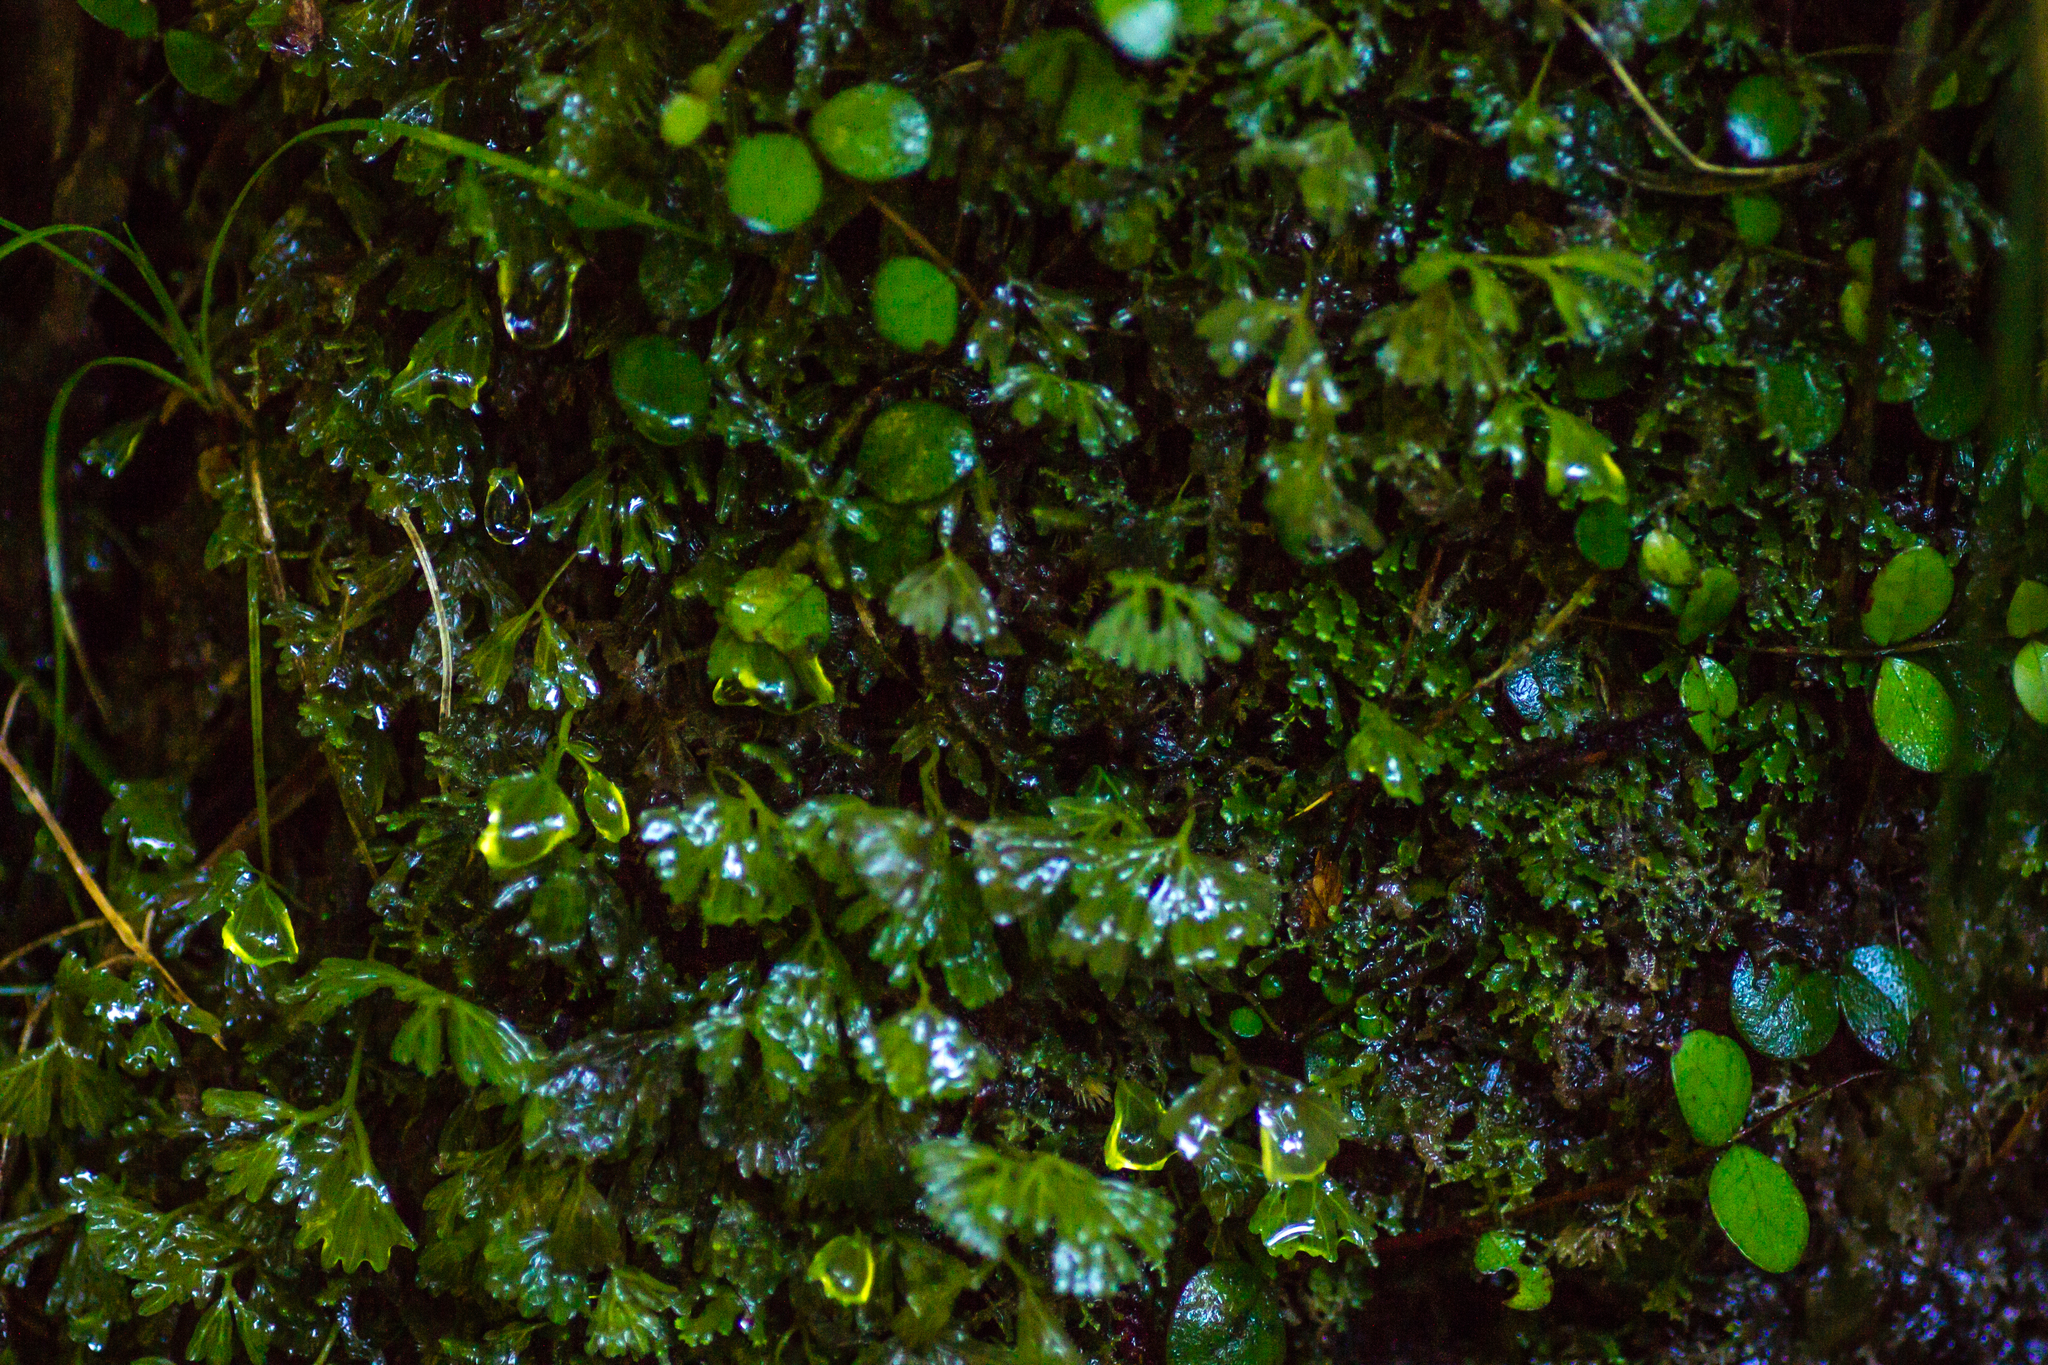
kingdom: Plantae
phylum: Marchantiophyta
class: Jungermanniopsida
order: Pallaviciniales
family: Pallaviciniaceae
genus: Symphyogyna
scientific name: Symphyogyna hymenophyllum
